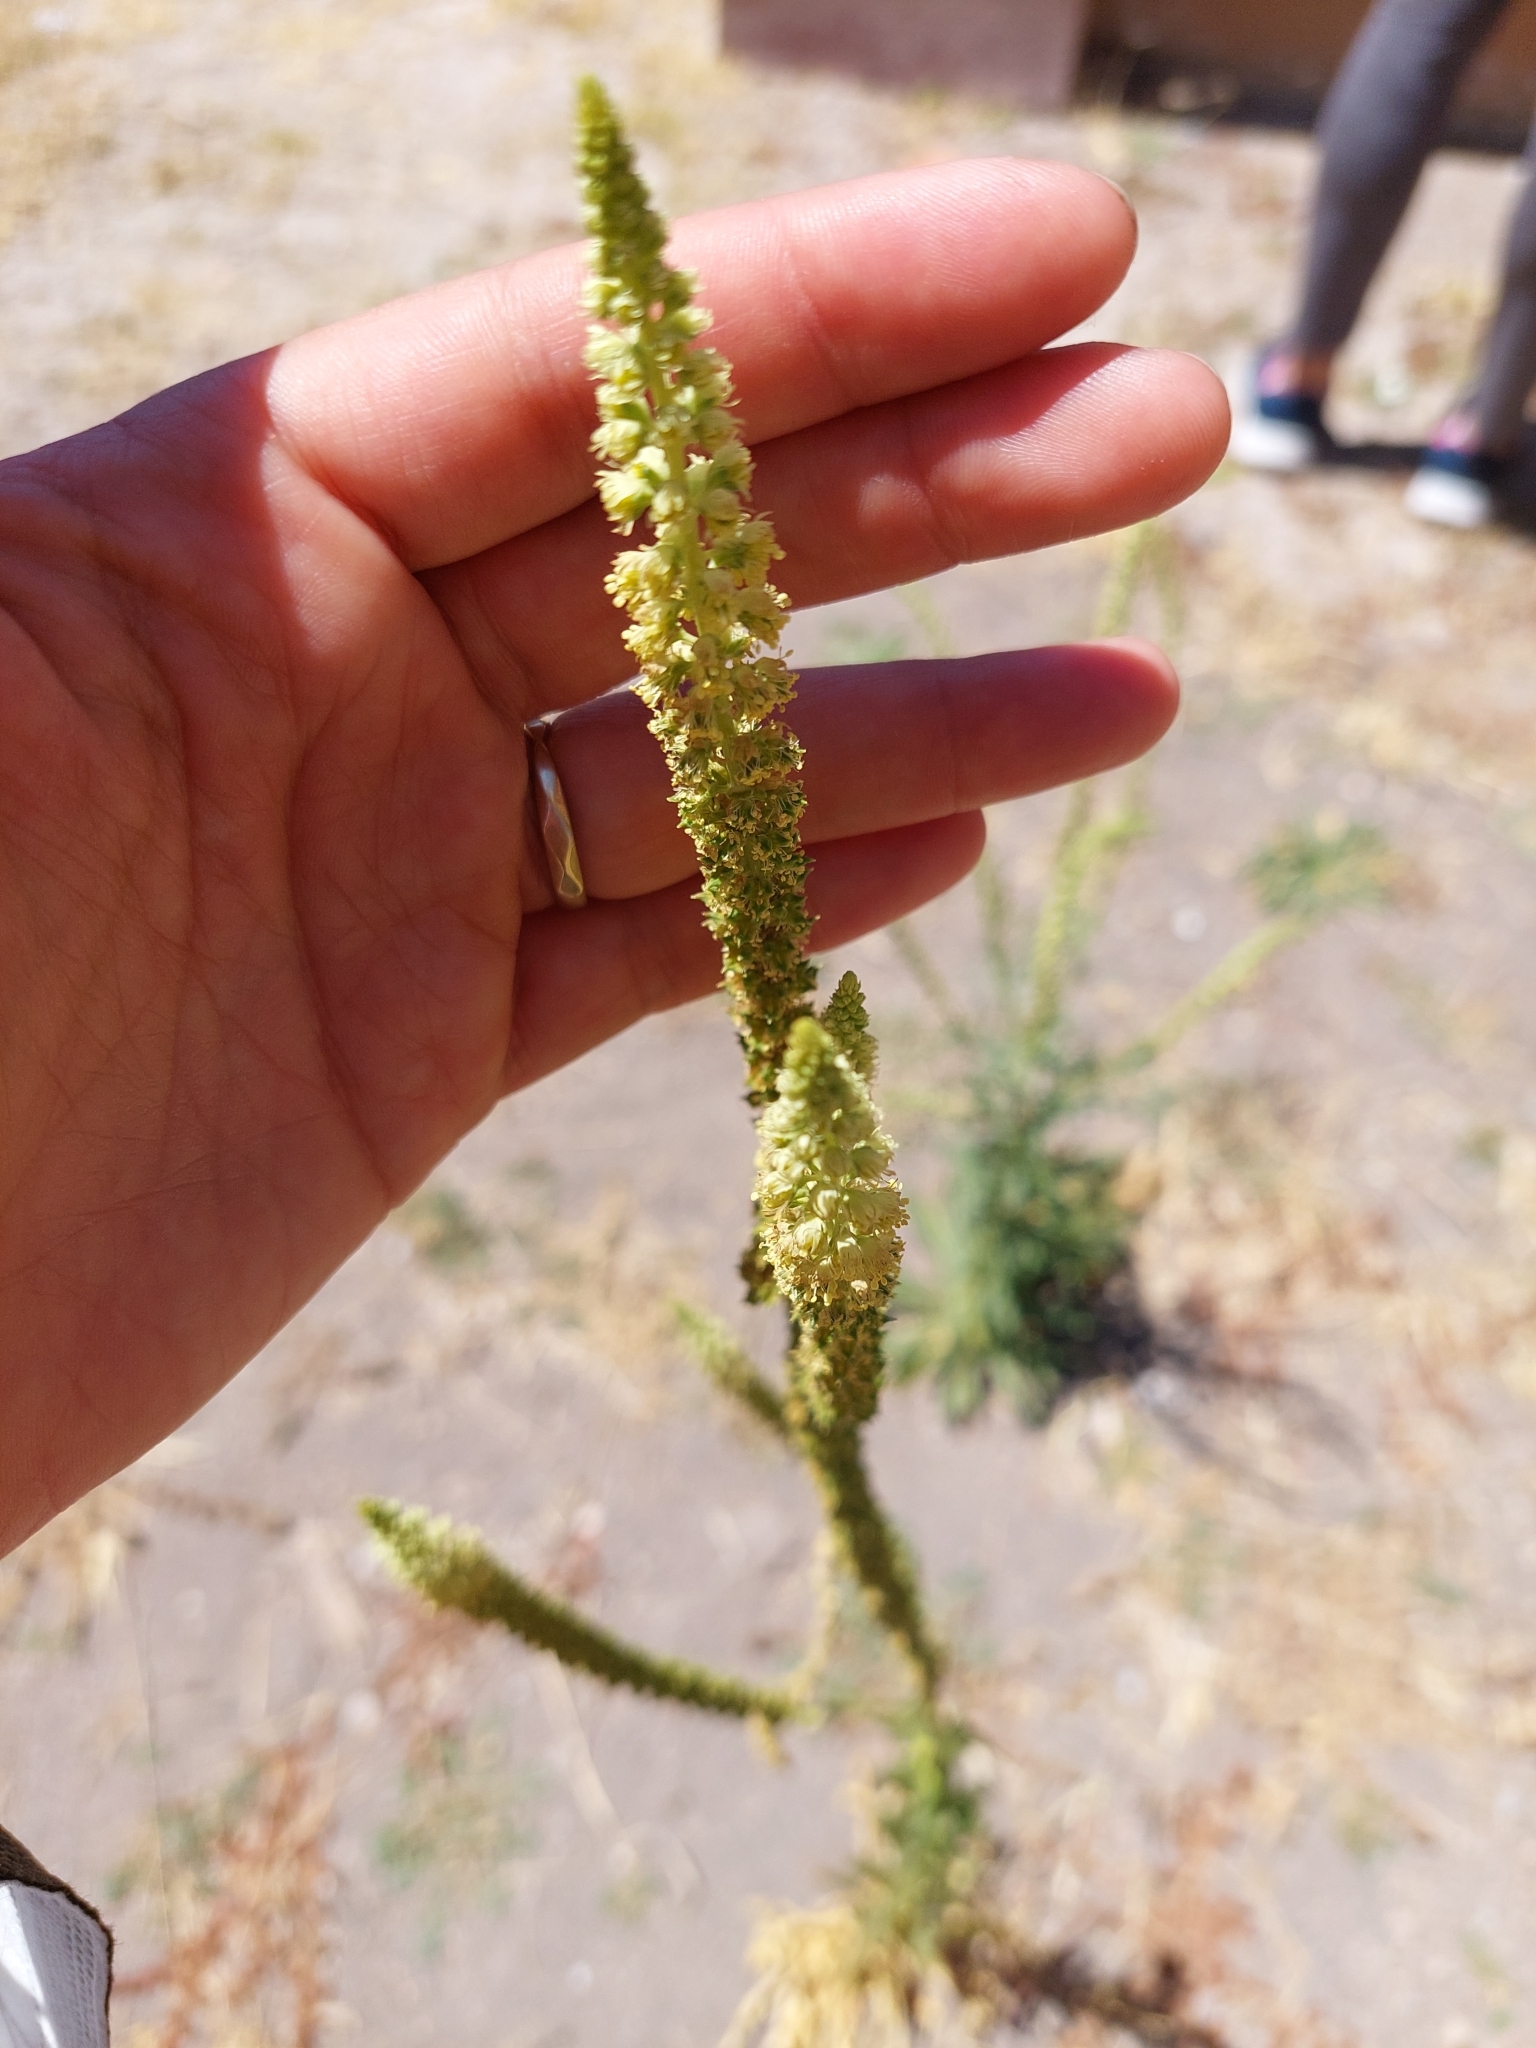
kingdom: Plantae
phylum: Tracheophyta
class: Magnoliopsida
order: Brassicales
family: Resedaceae
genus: Reseda
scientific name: Reseda luteola
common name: Weld
